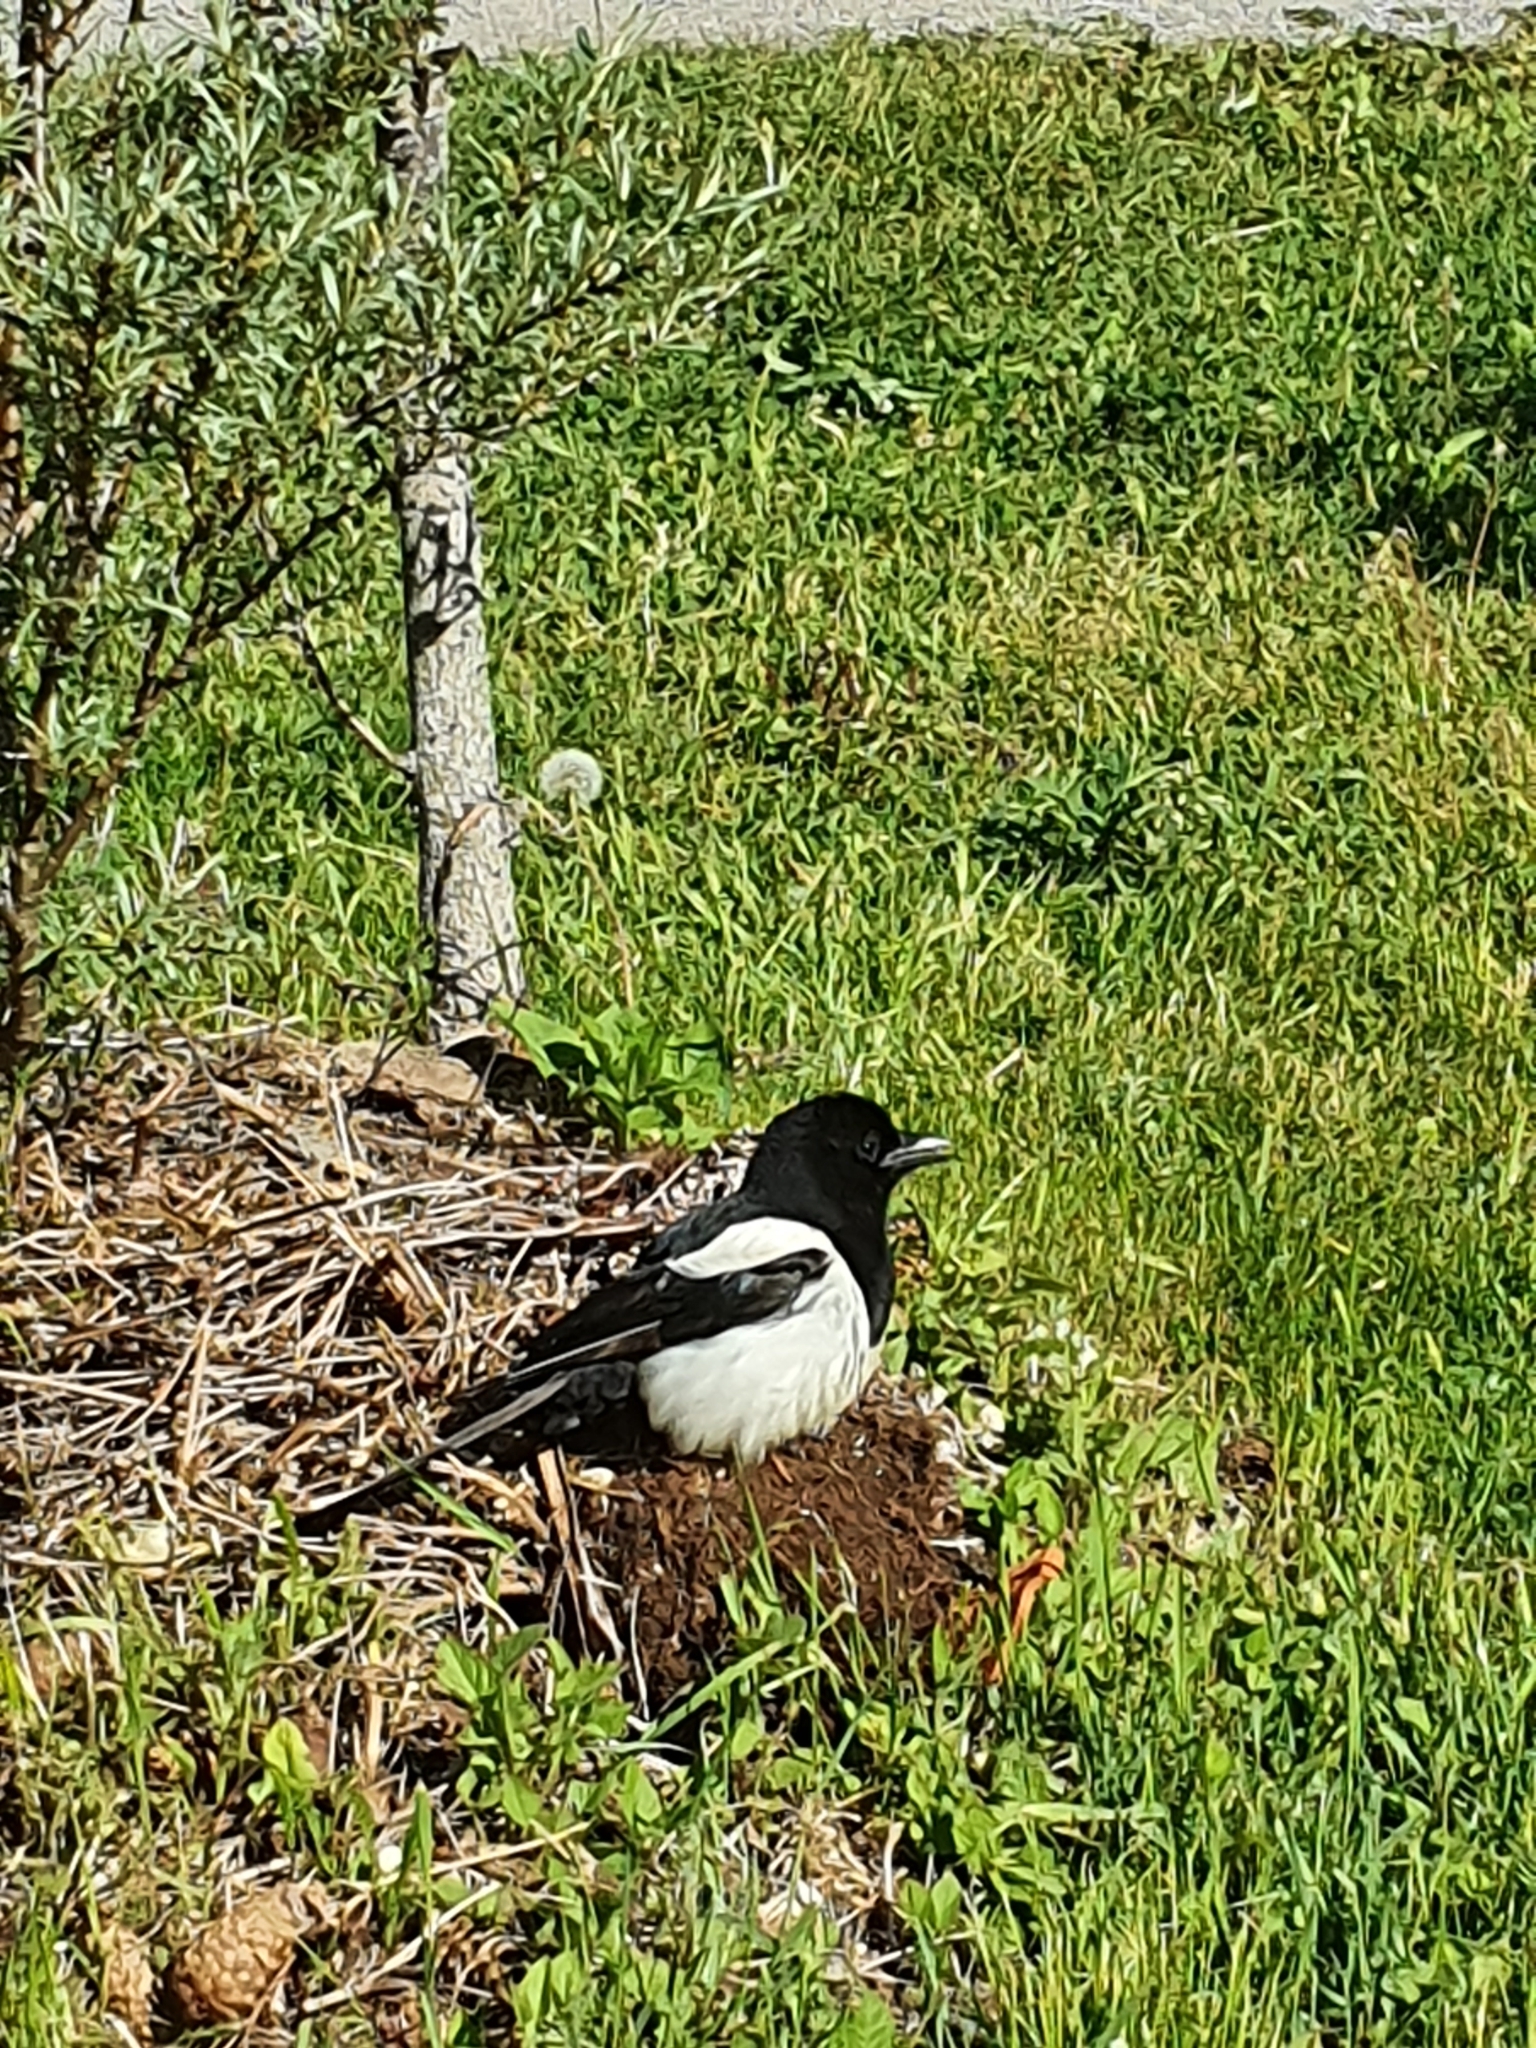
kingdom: Animalia
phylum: Chordata
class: Aves
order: Passeriformes
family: Corvidae
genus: Pica
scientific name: Pica pica
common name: Eurasian magpie
